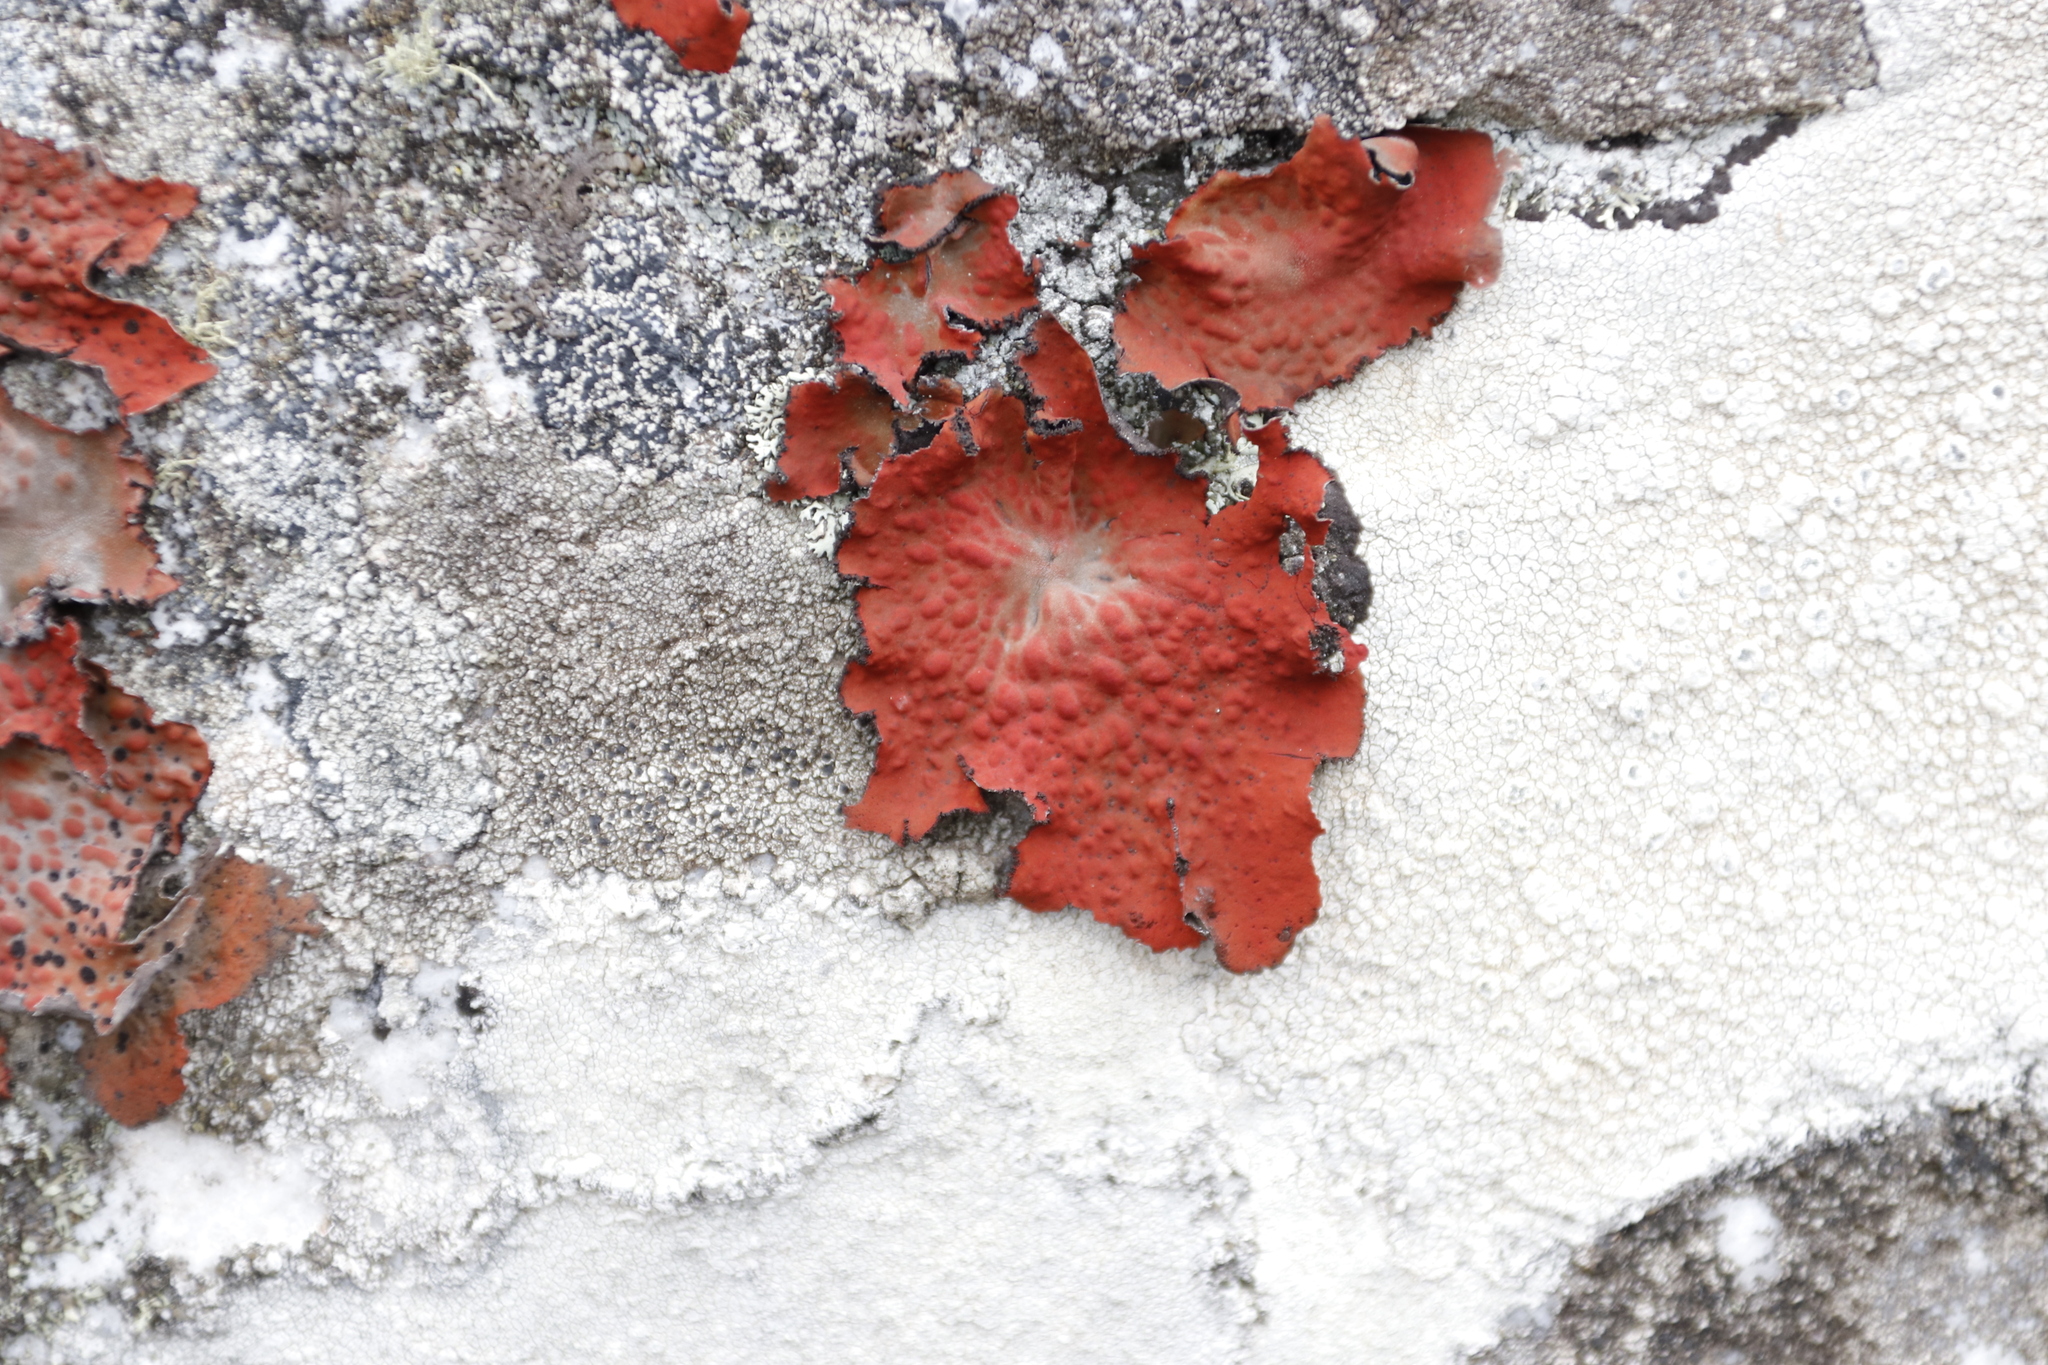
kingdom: Fungi
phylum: Ascomycota
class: Lecanoromycetes
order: Umbilicariales
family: Umbilicariaceae
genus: Lasallia
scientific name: Lasallia rubiginosa
